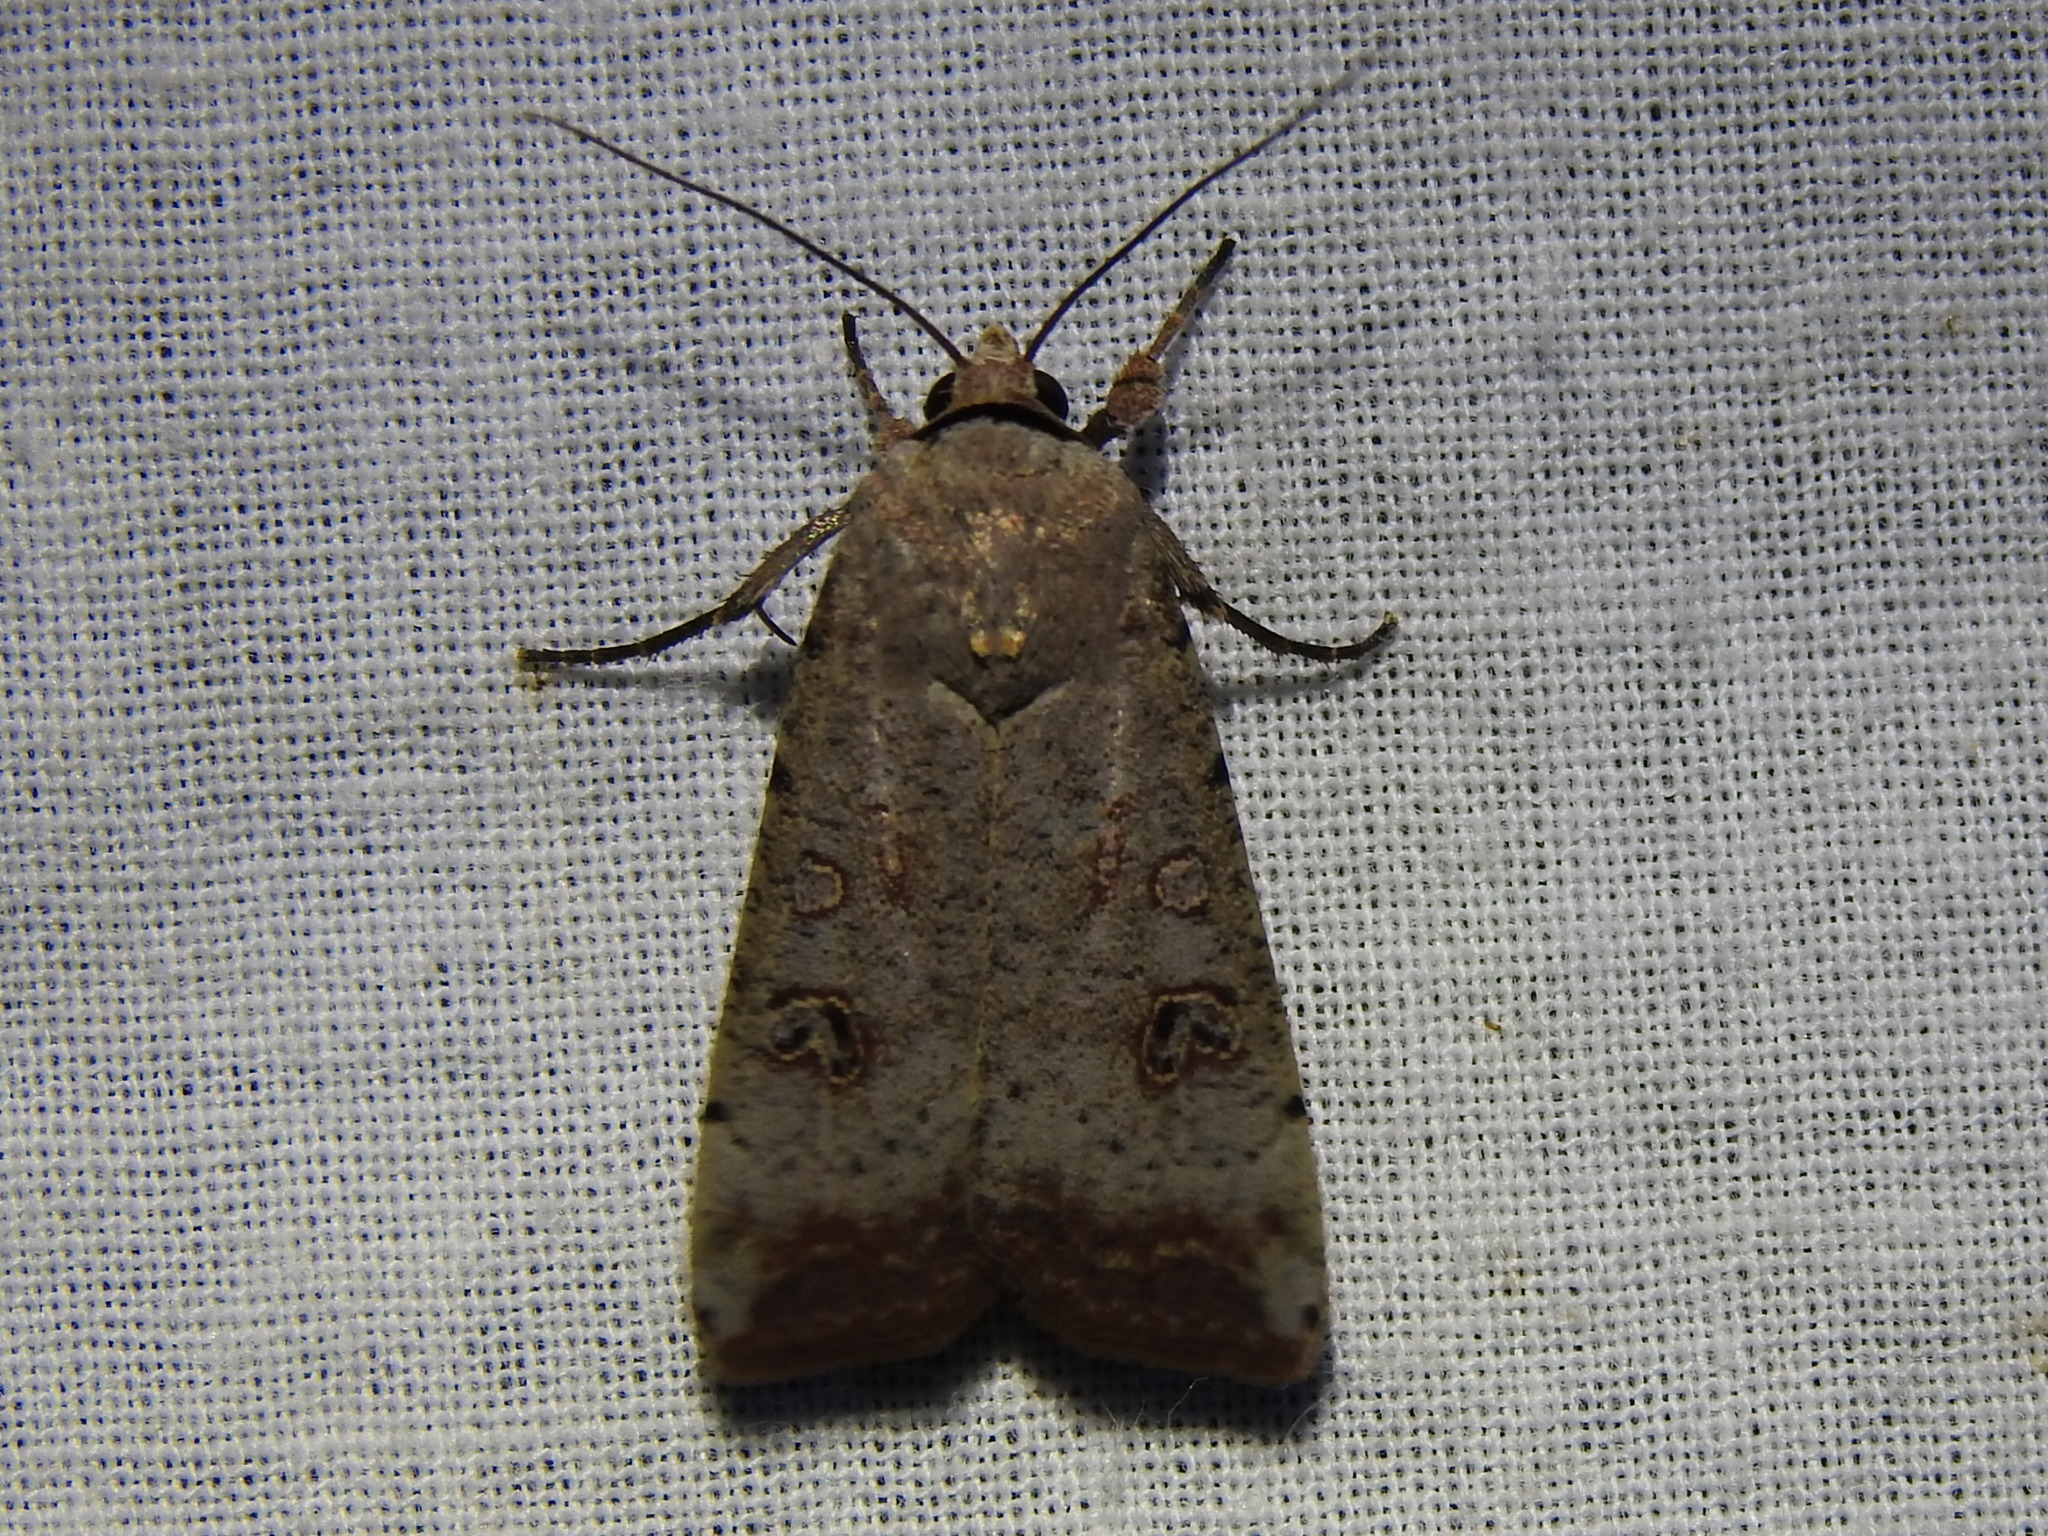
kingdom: Animalia
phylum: Arthropoda
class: Insecta
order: Lepidoptera
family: Noctuidae
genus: Anicla
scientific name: Anicla infecta
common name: Green cutworm
